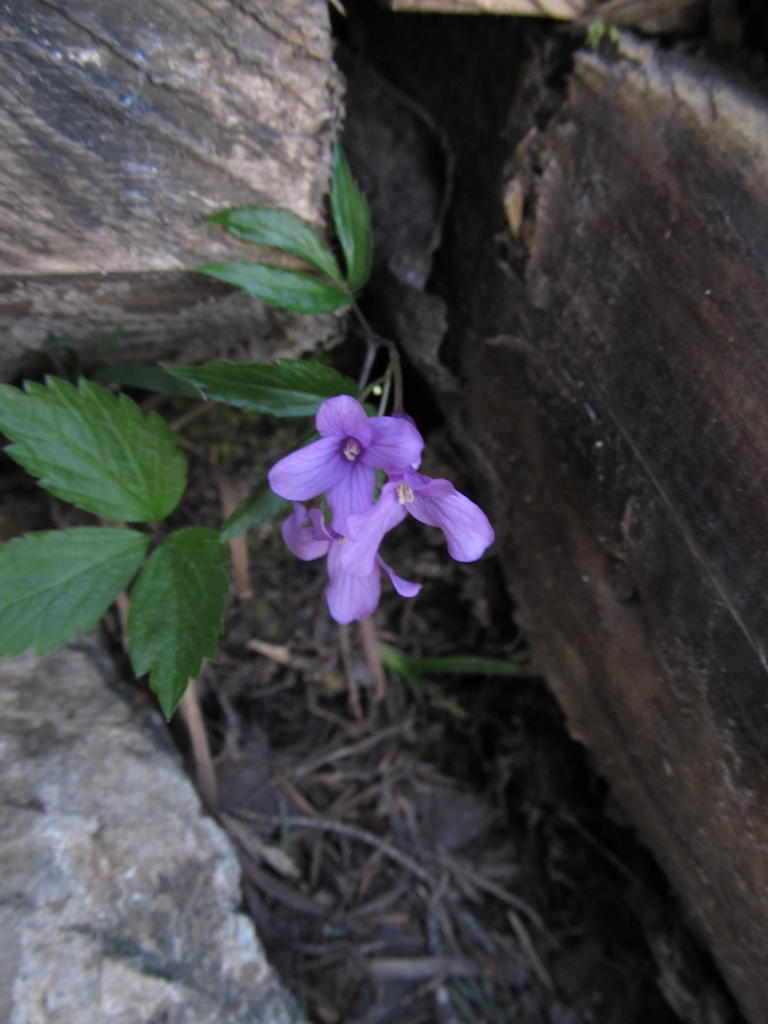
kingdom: Plantae
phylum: Tracheophyta
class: Magnoliopsida
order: Brassicales
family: Brassicaceae
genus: Cardamine
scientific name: Cardamine glanduligera
